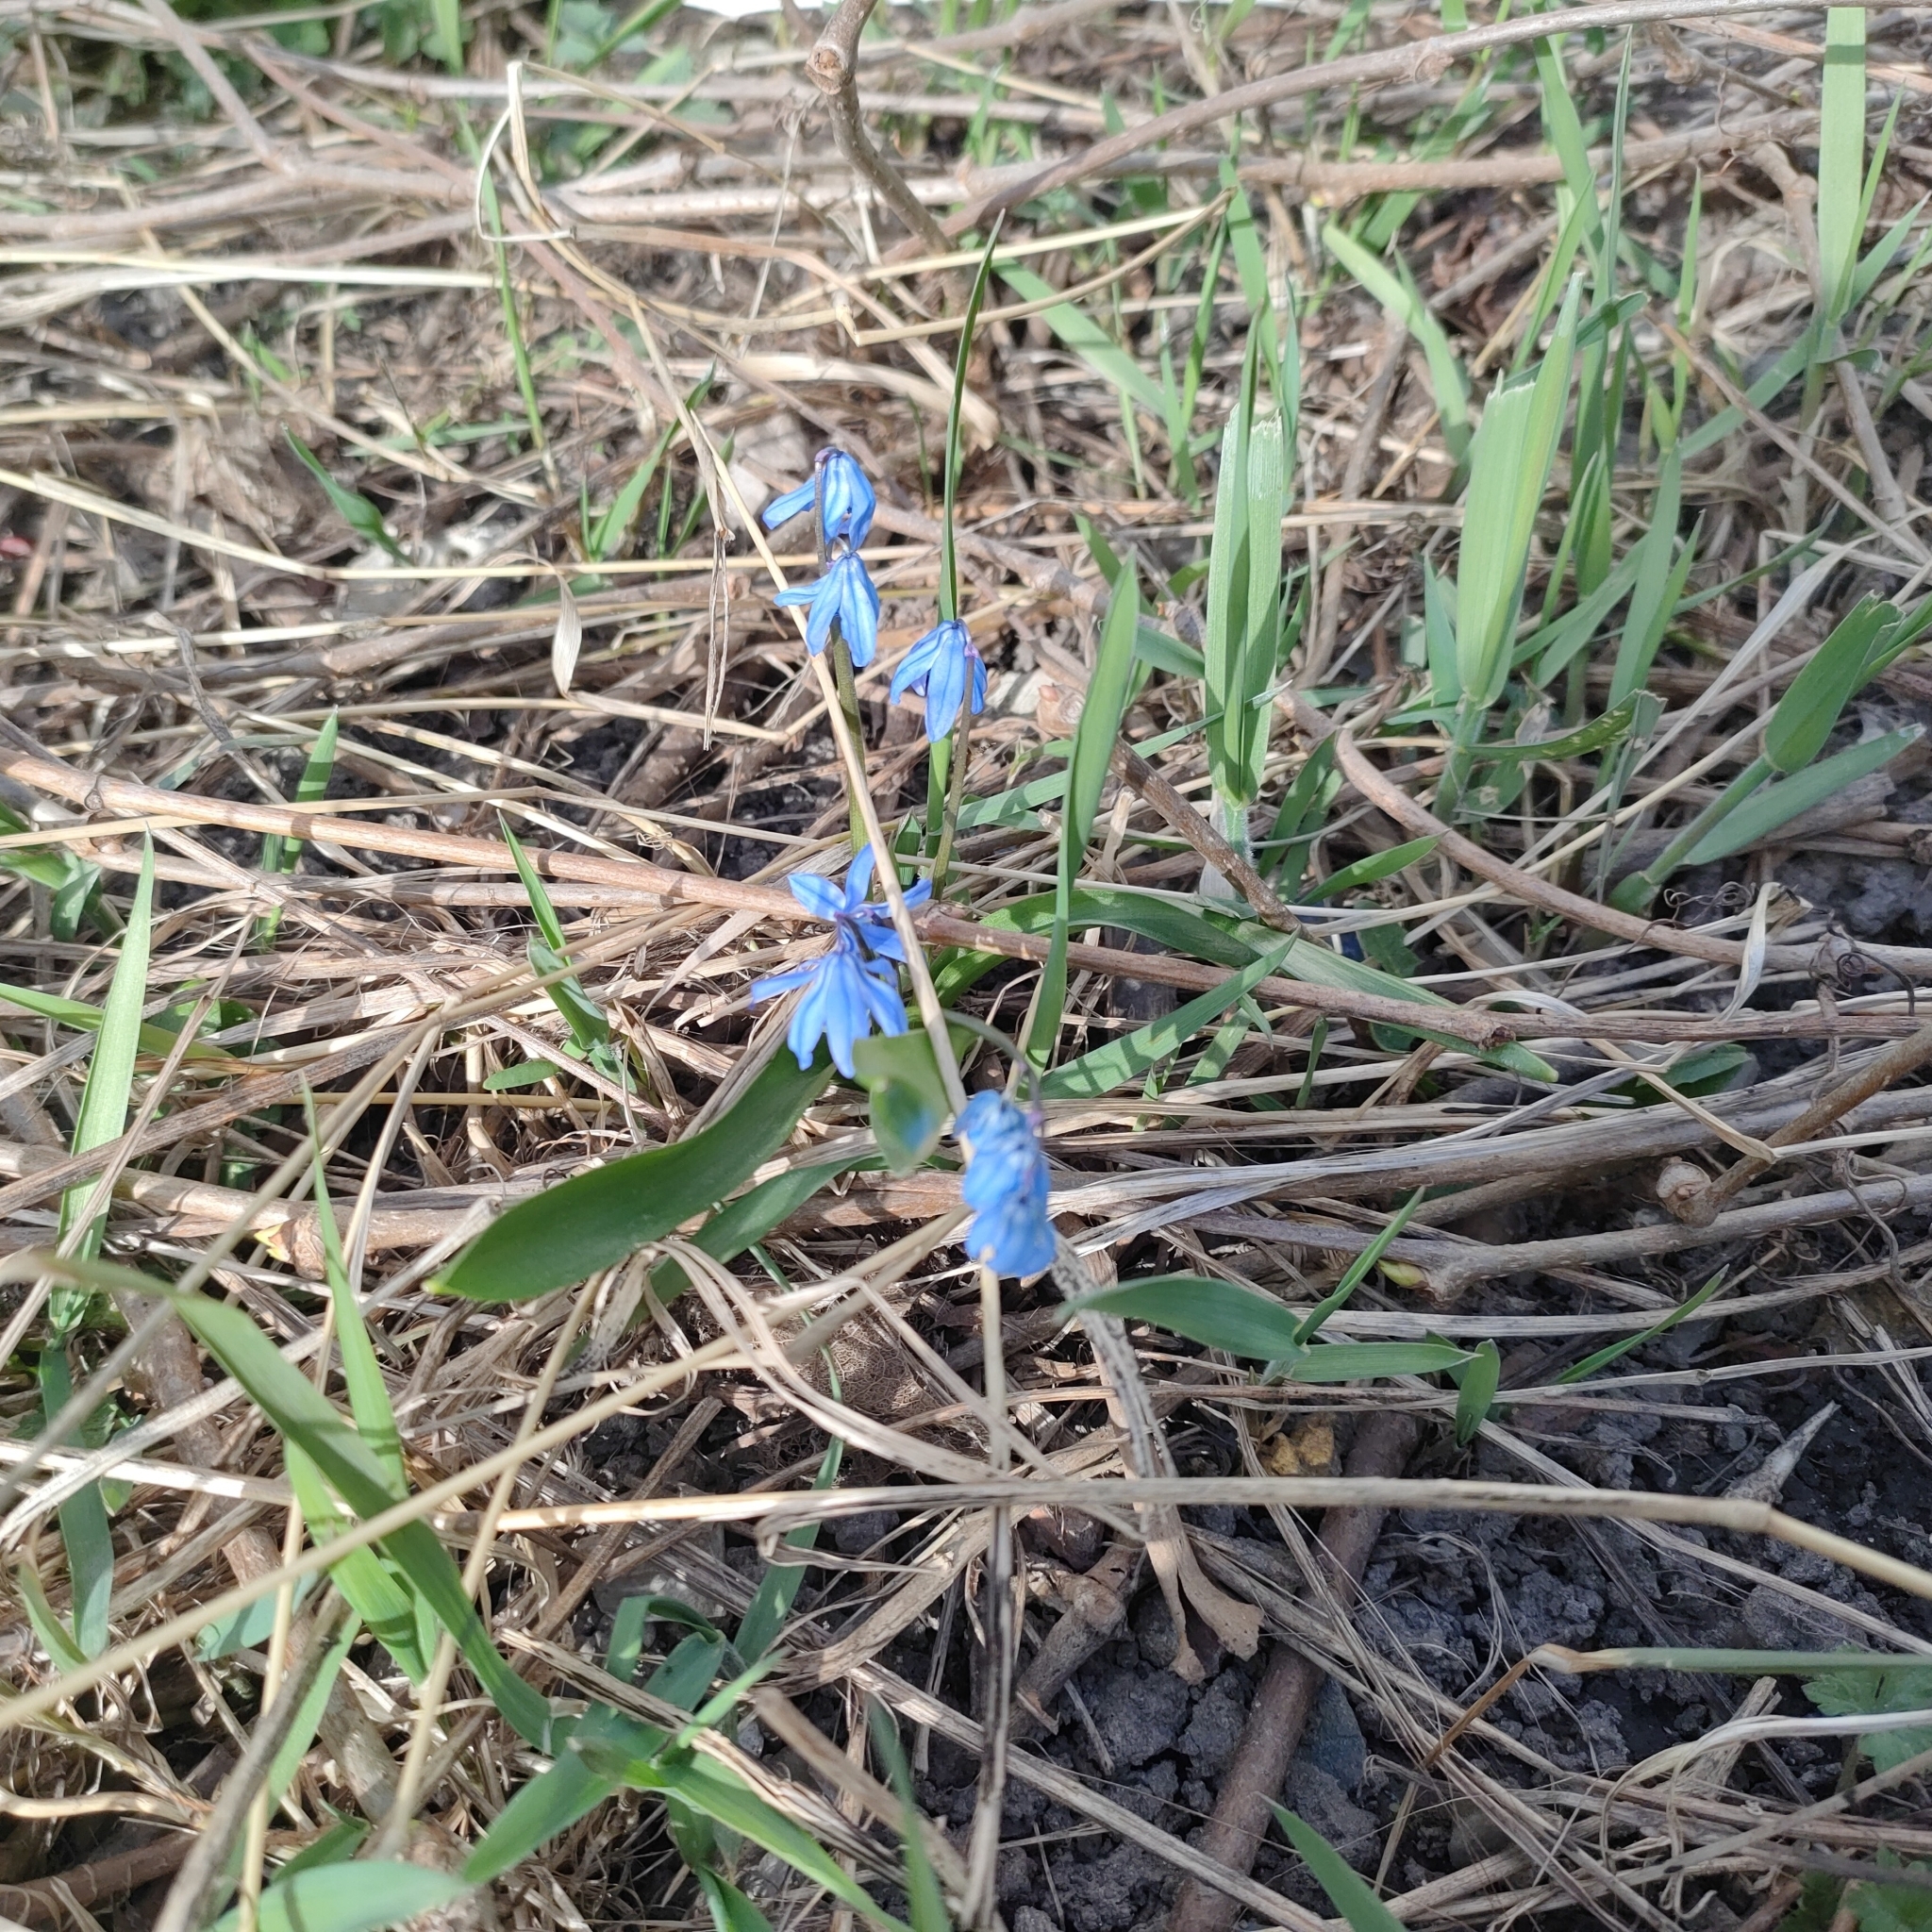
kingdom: Plantae
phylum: Tracheophyta
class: Liliopsida
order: Asparagales
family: Asparagaceae
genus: Scilla
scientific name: Scilla siberica
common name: Siberian squill
